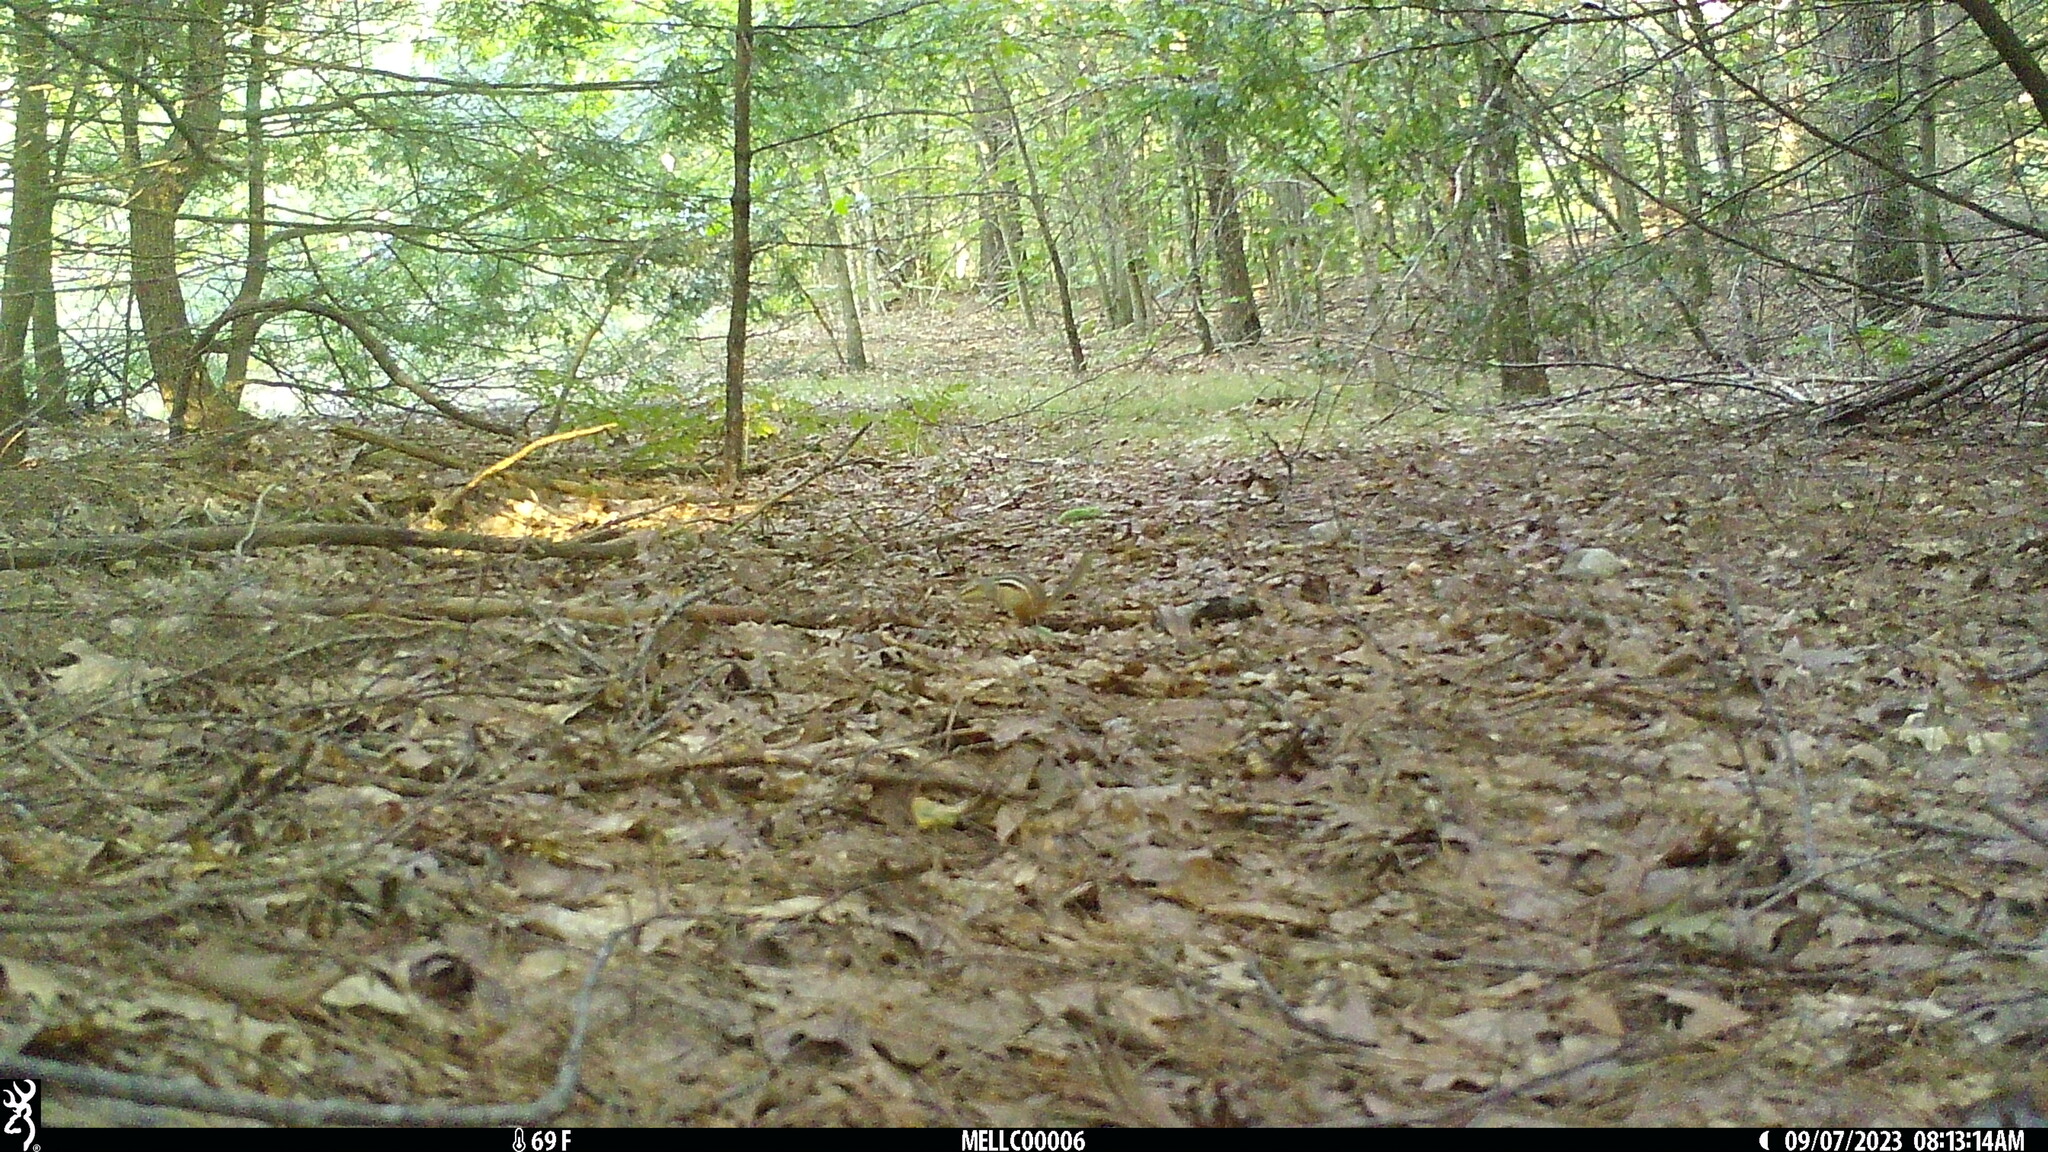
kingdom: Animalia
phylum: Chordata
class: Mammalia
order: Rodentia
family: Sciuridae
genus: Tamias
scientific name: Tamias striatus
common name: Eastern chipmunk
